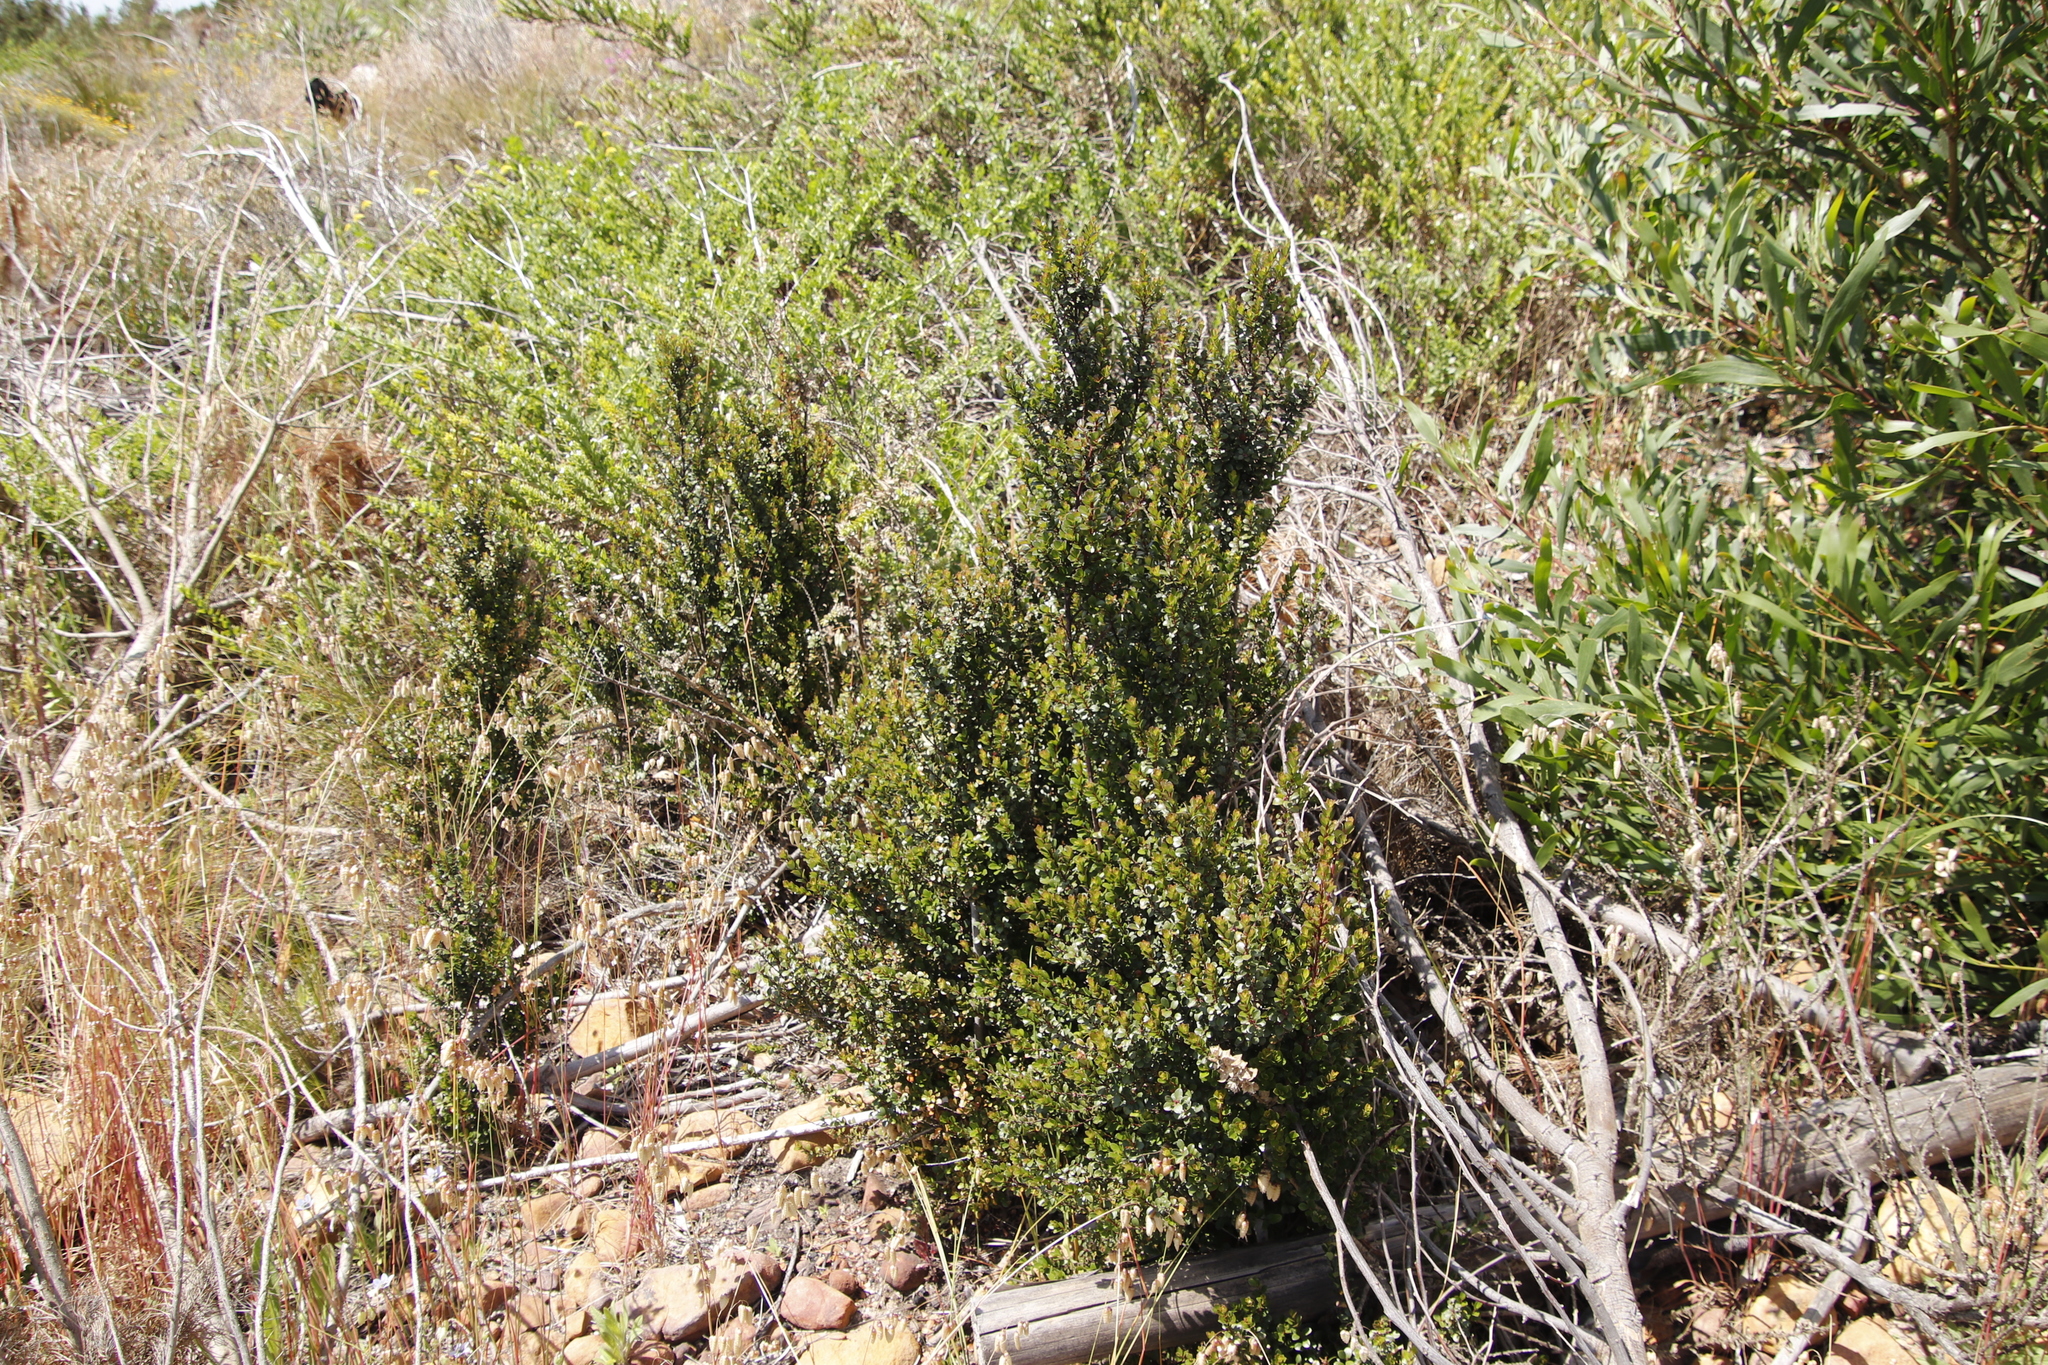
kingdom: Plantae
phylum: Tracheophyta
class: Magnoliopsida
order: Ericales
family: Primulaceae
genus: Myrsine
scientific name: Myrsine africana
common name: African-boxwood
